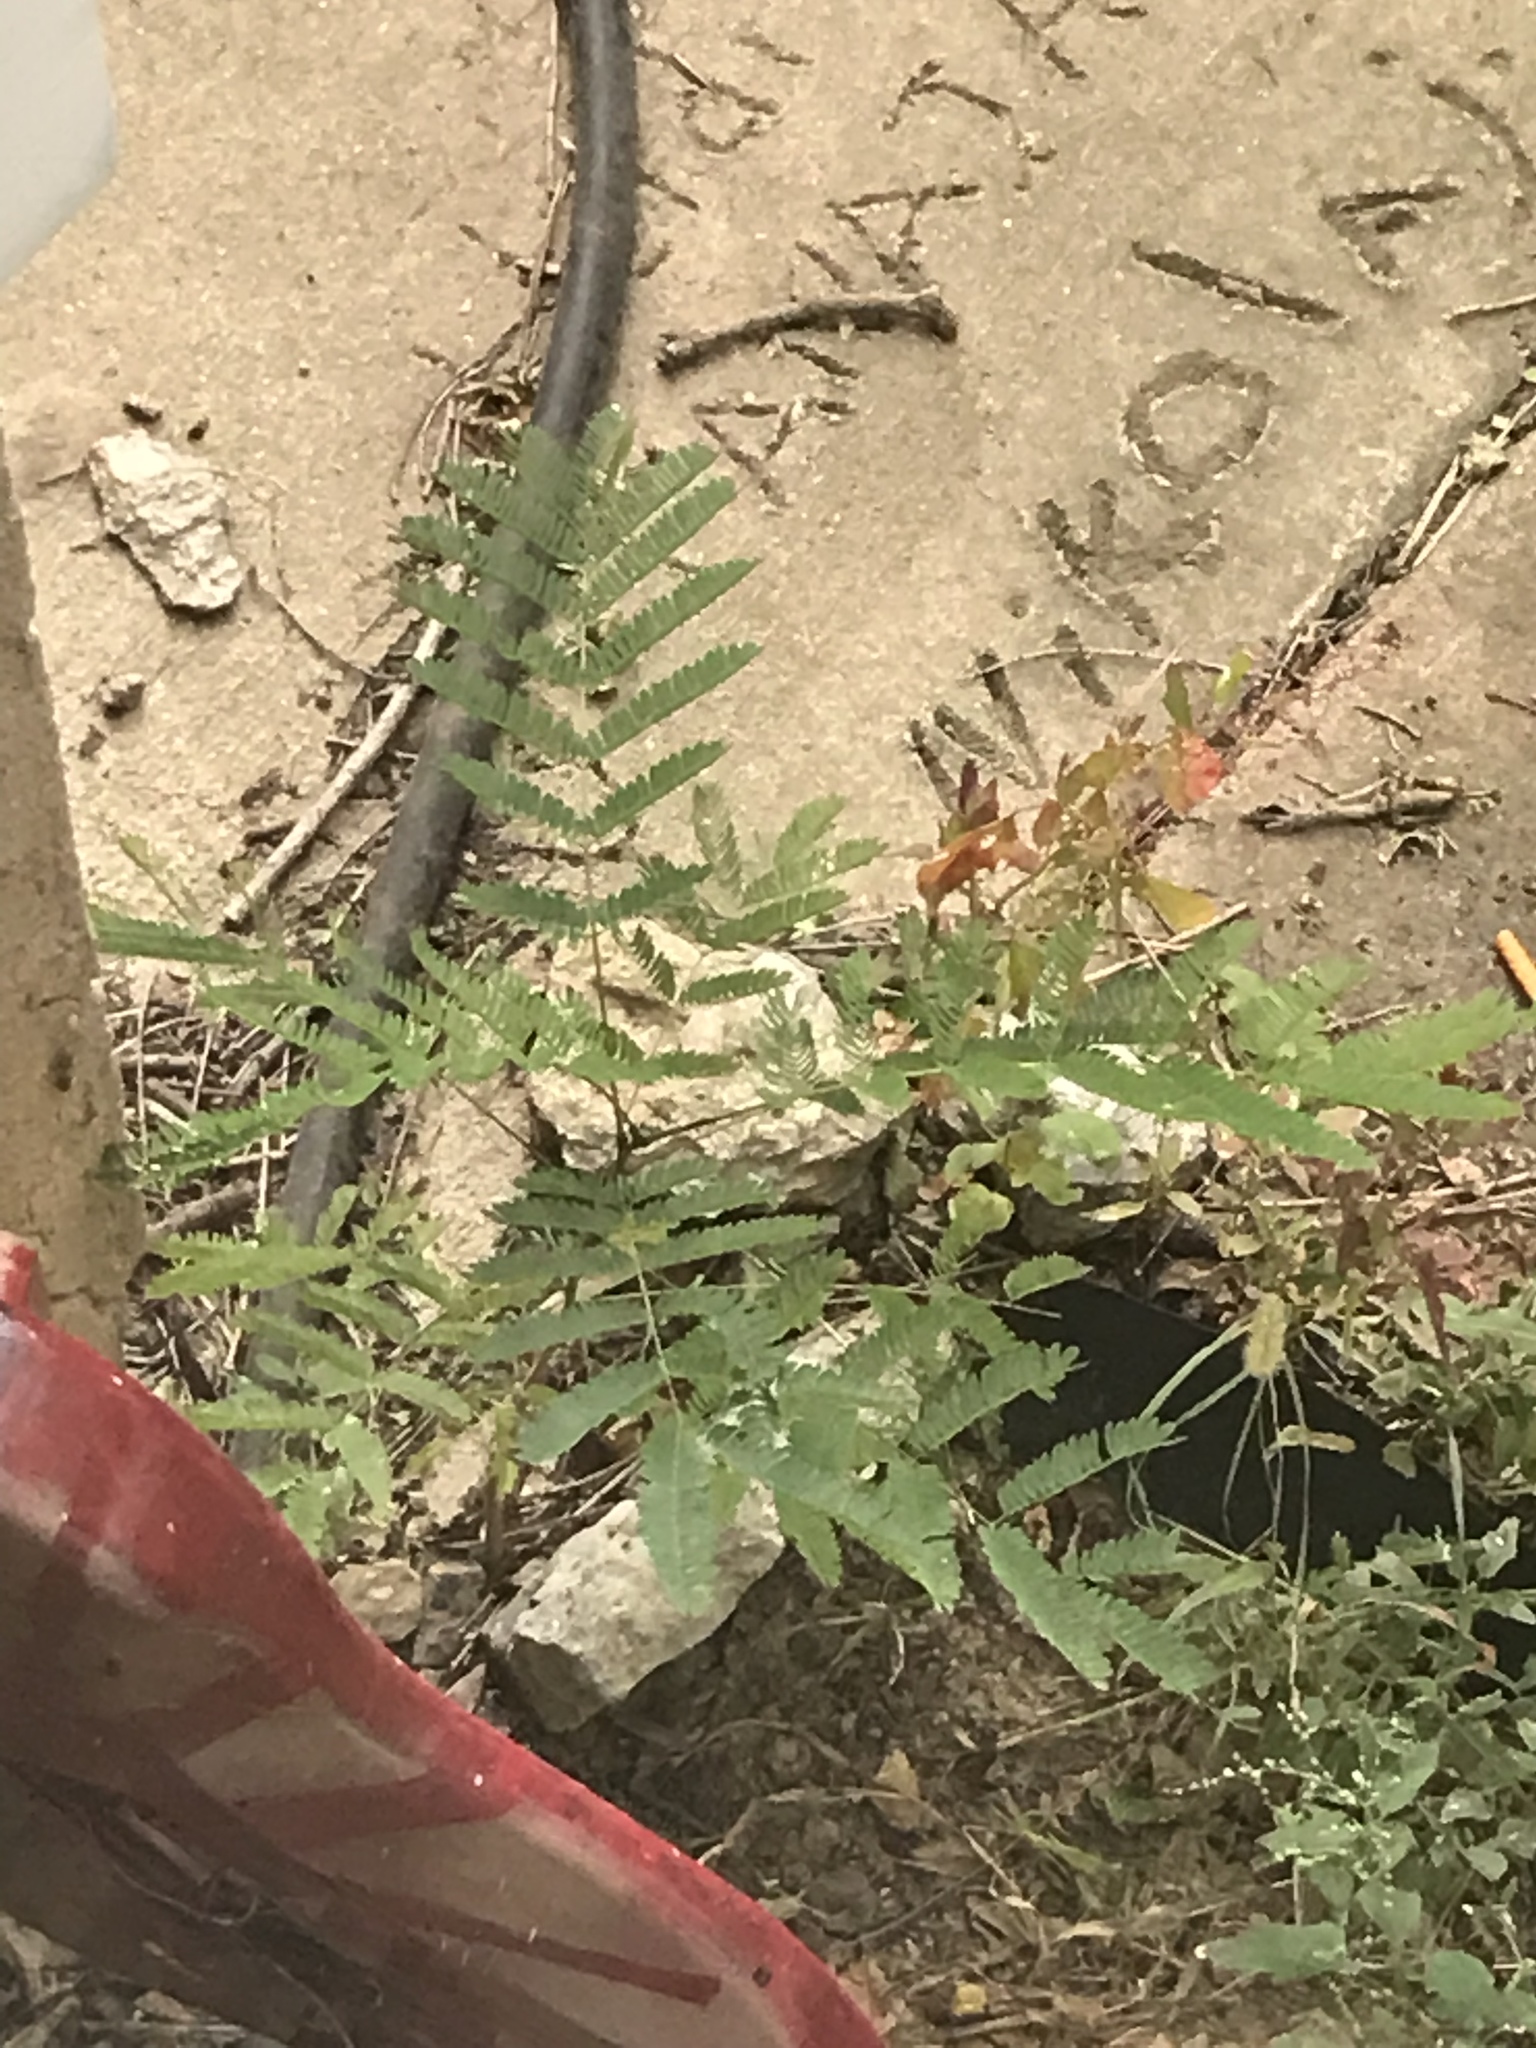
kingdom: Plantae
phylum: Tracheophyta
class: Magnoliopsida
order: Fabales
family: Fabaceae
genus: Desmanthus
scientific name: Desmanthus illinoensis
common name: Illinois bundle-flower
